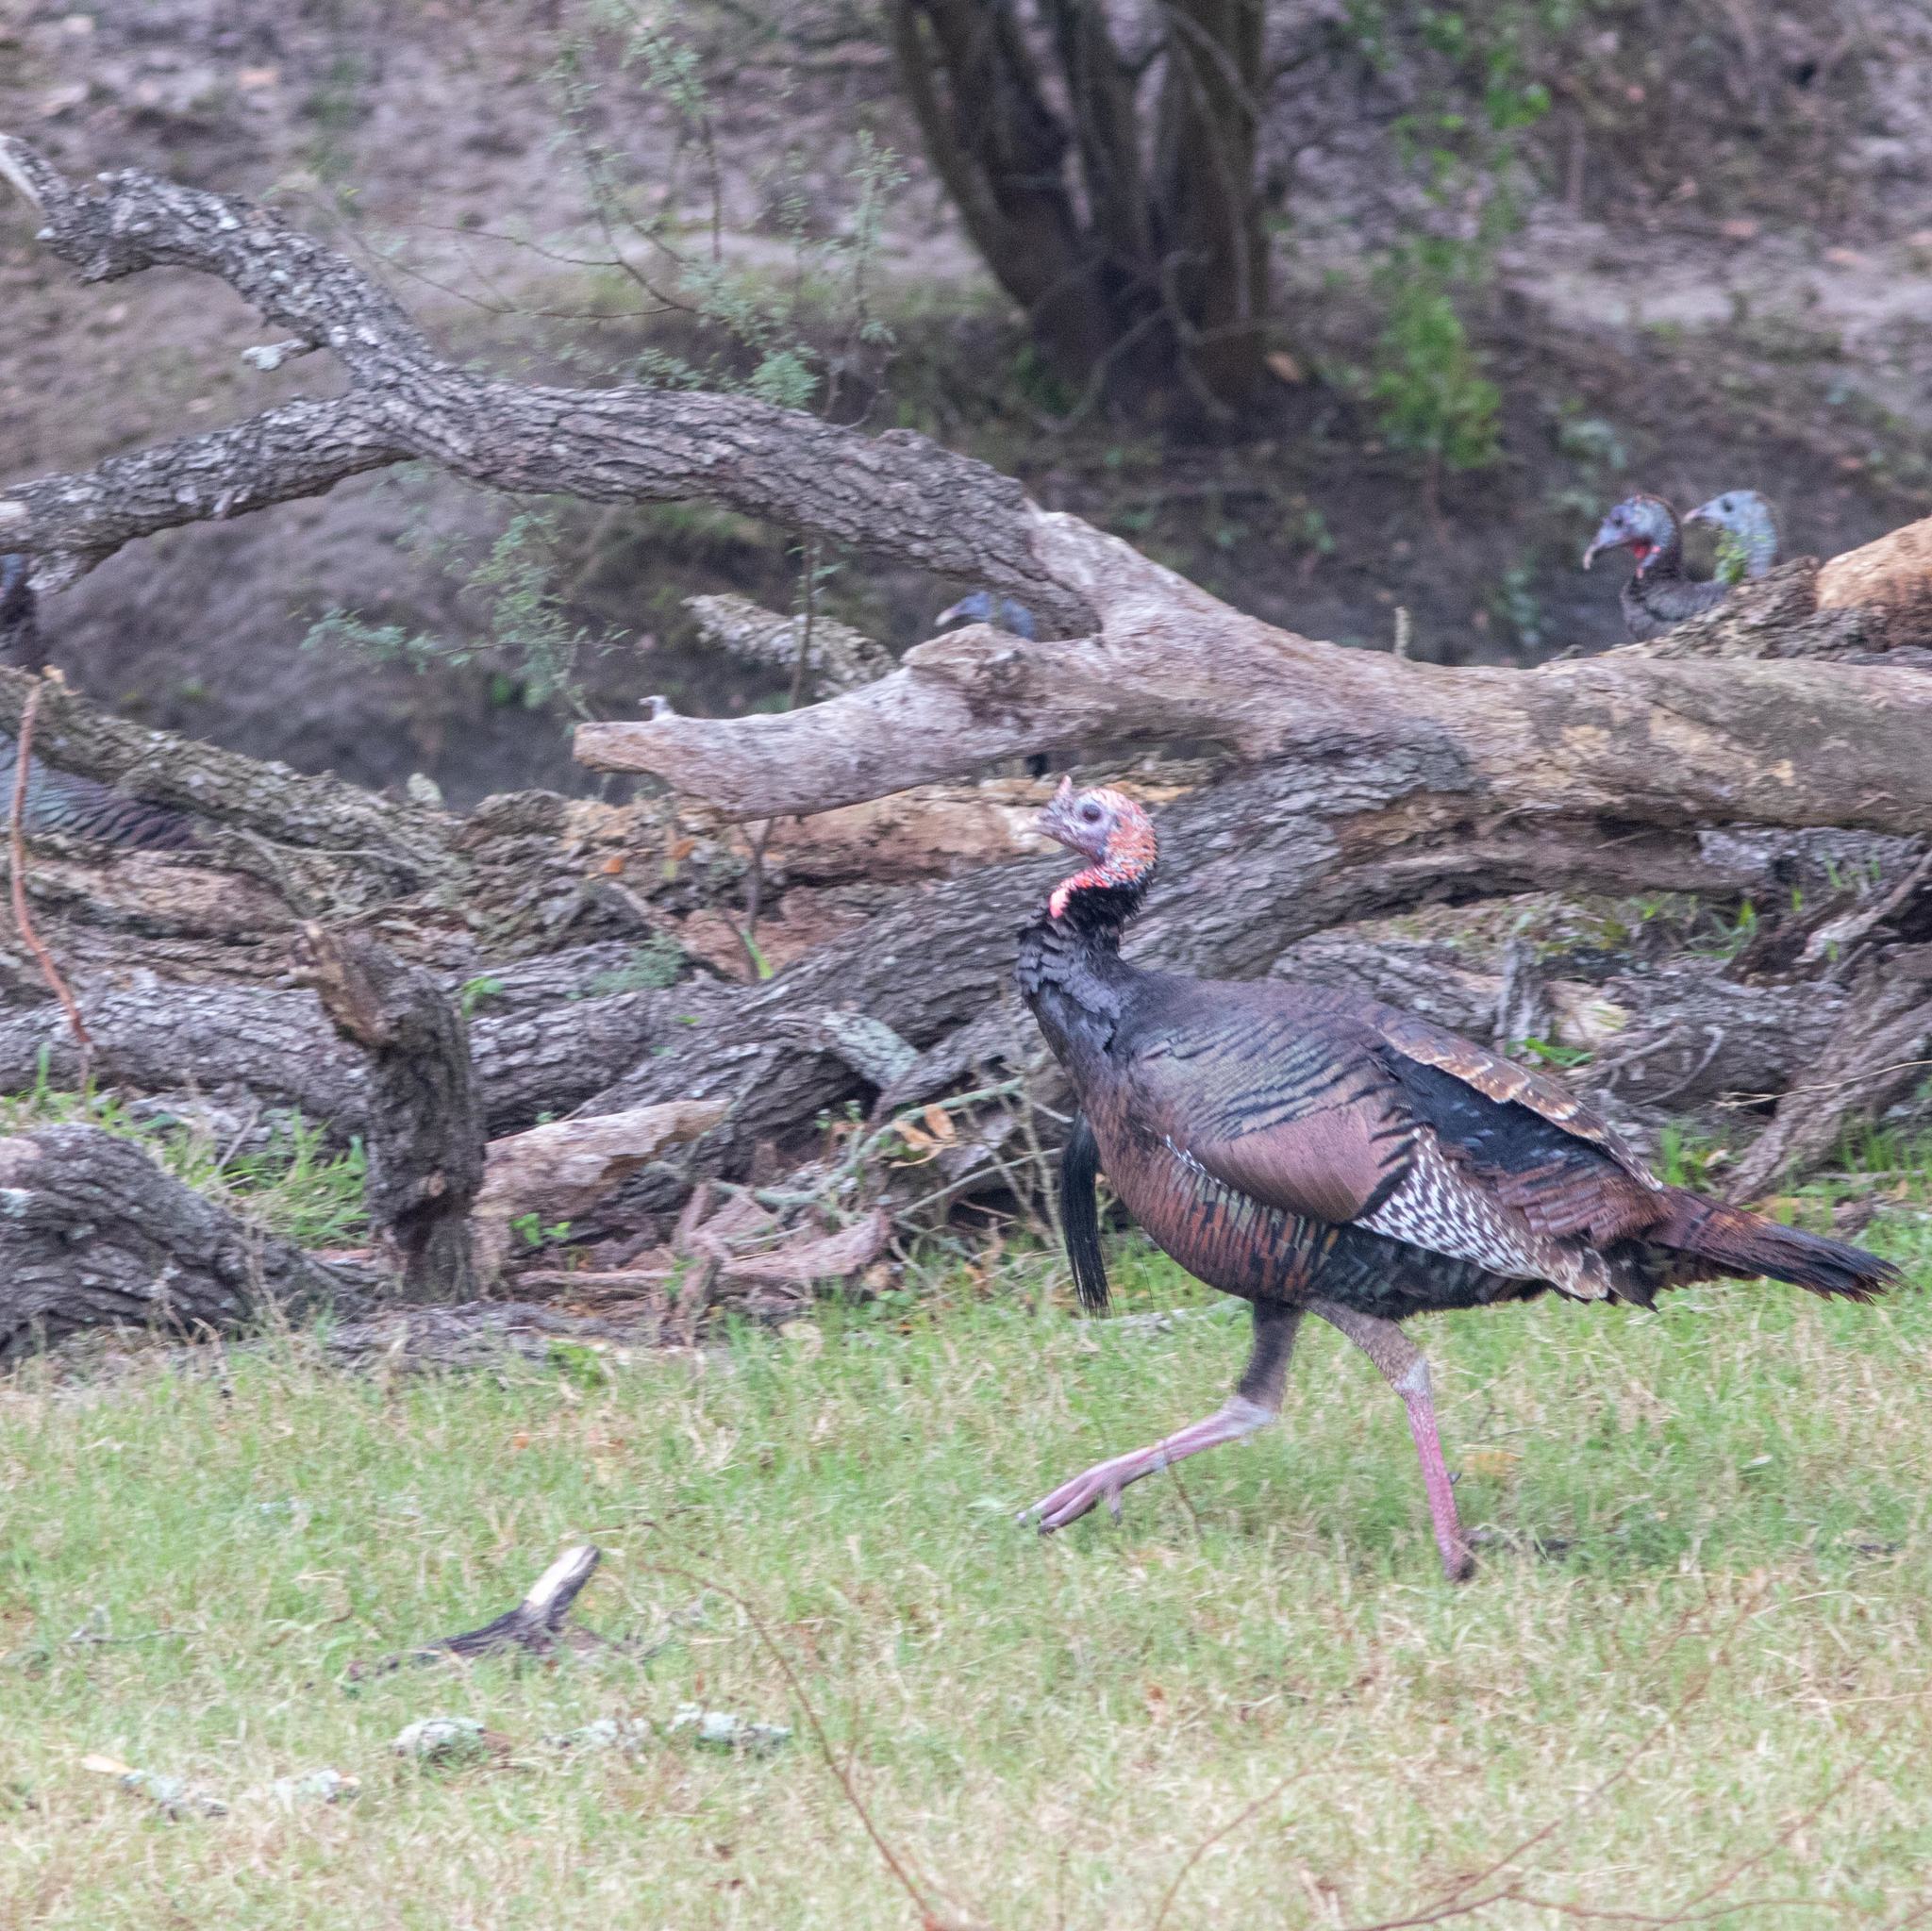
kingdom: Animalia
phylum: Chordata
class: Aves
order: Galliformes
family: Phasianidae
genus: Meleagris
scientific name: Meleagris gallopavo
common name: Wild turkey
